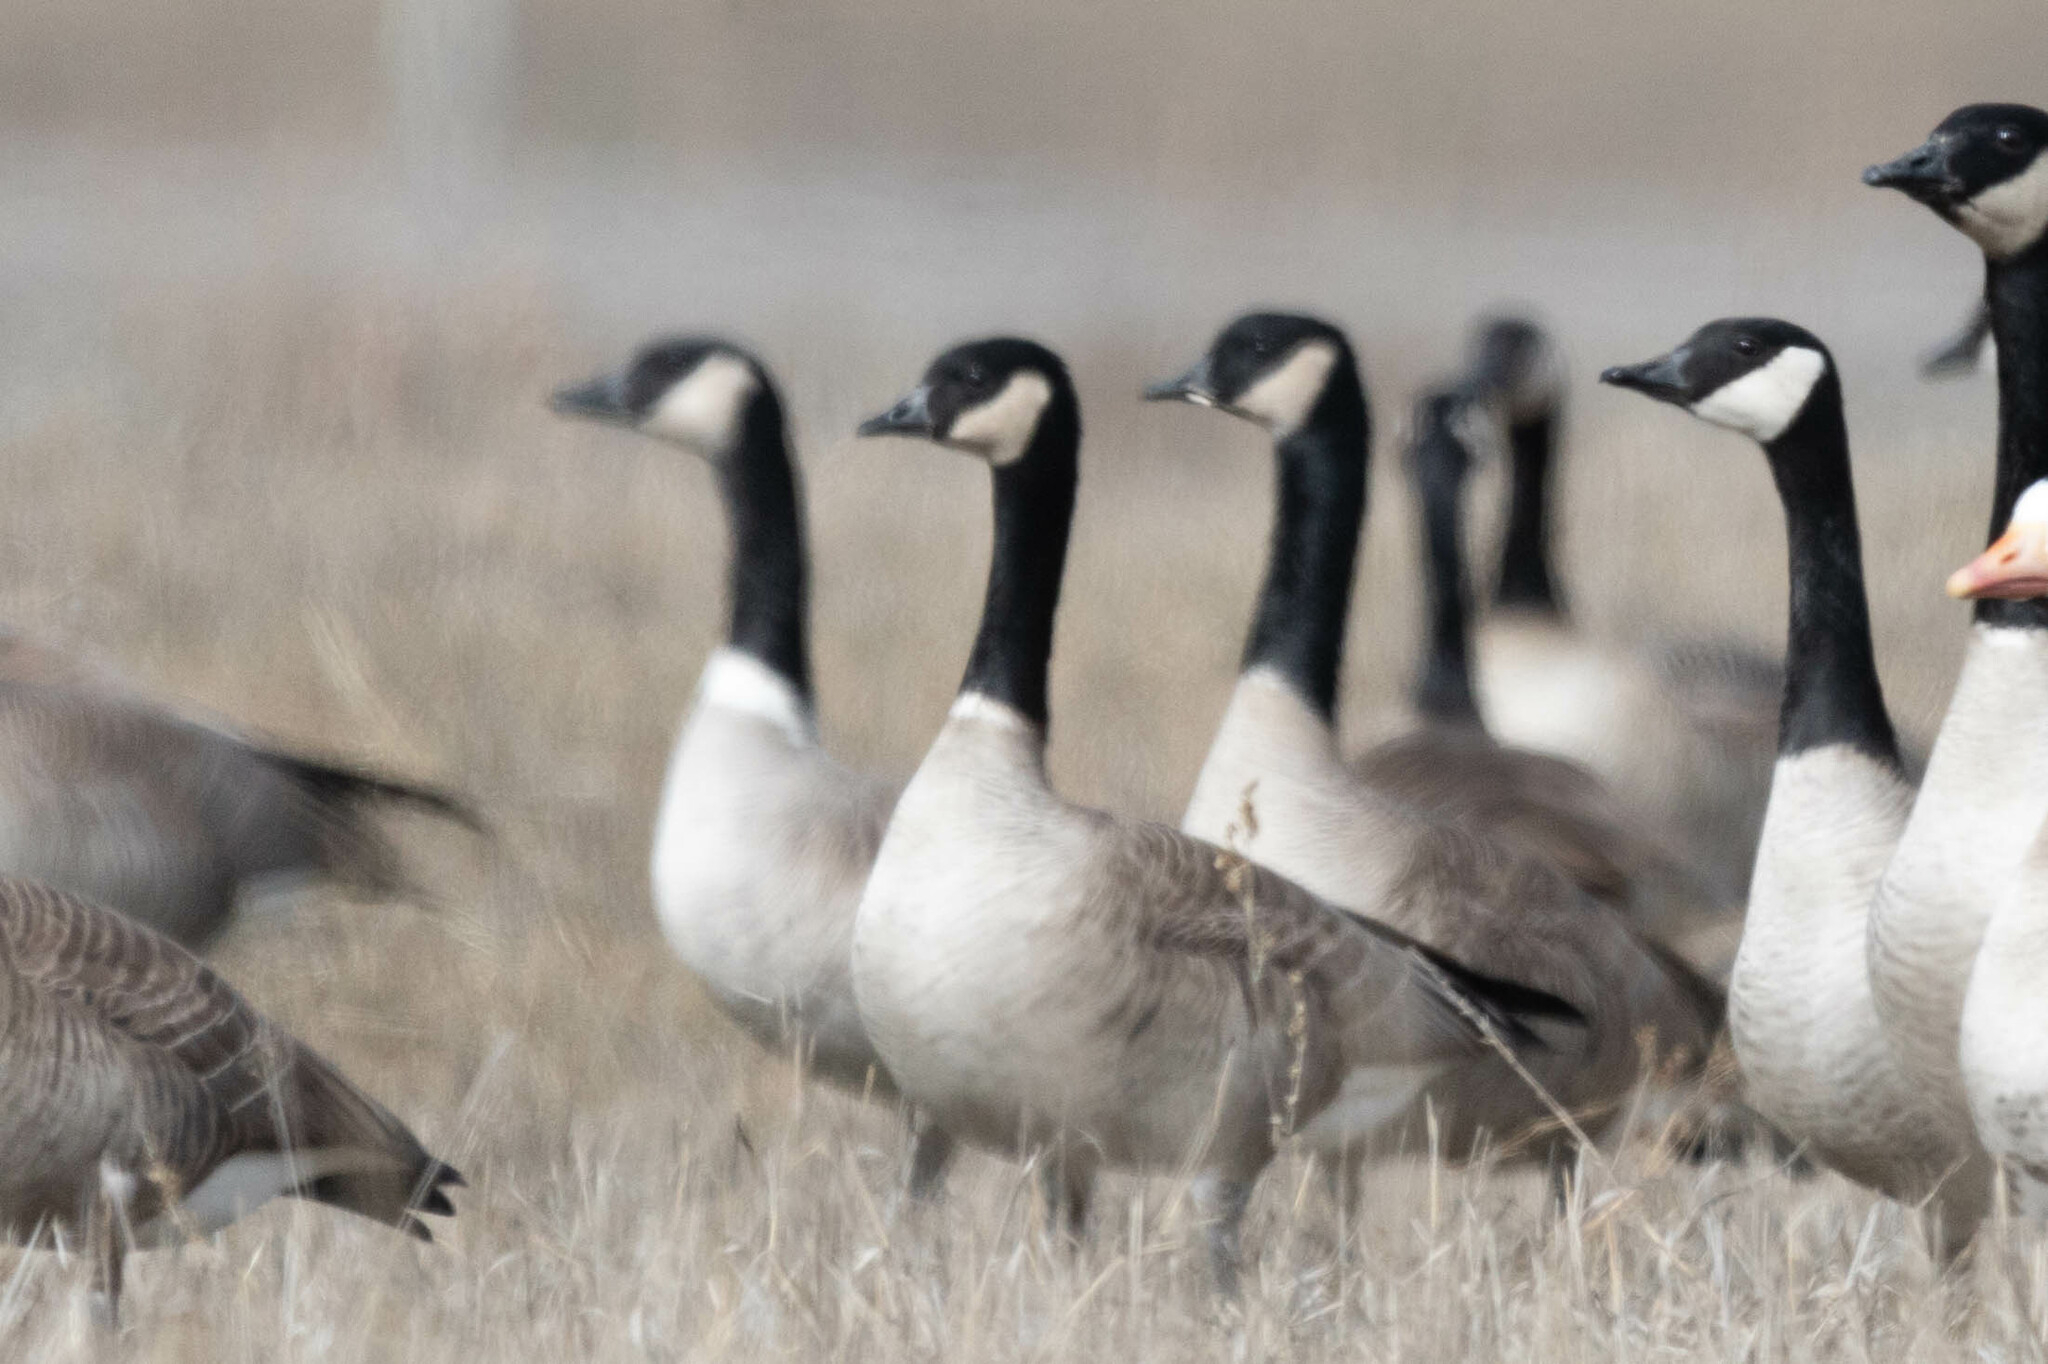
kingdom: Animalia
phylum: Chordata
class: Aves
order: Anseriformes
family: Anatidae
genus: Branta
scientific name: Branta hutchinsii
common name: Cackling goose
